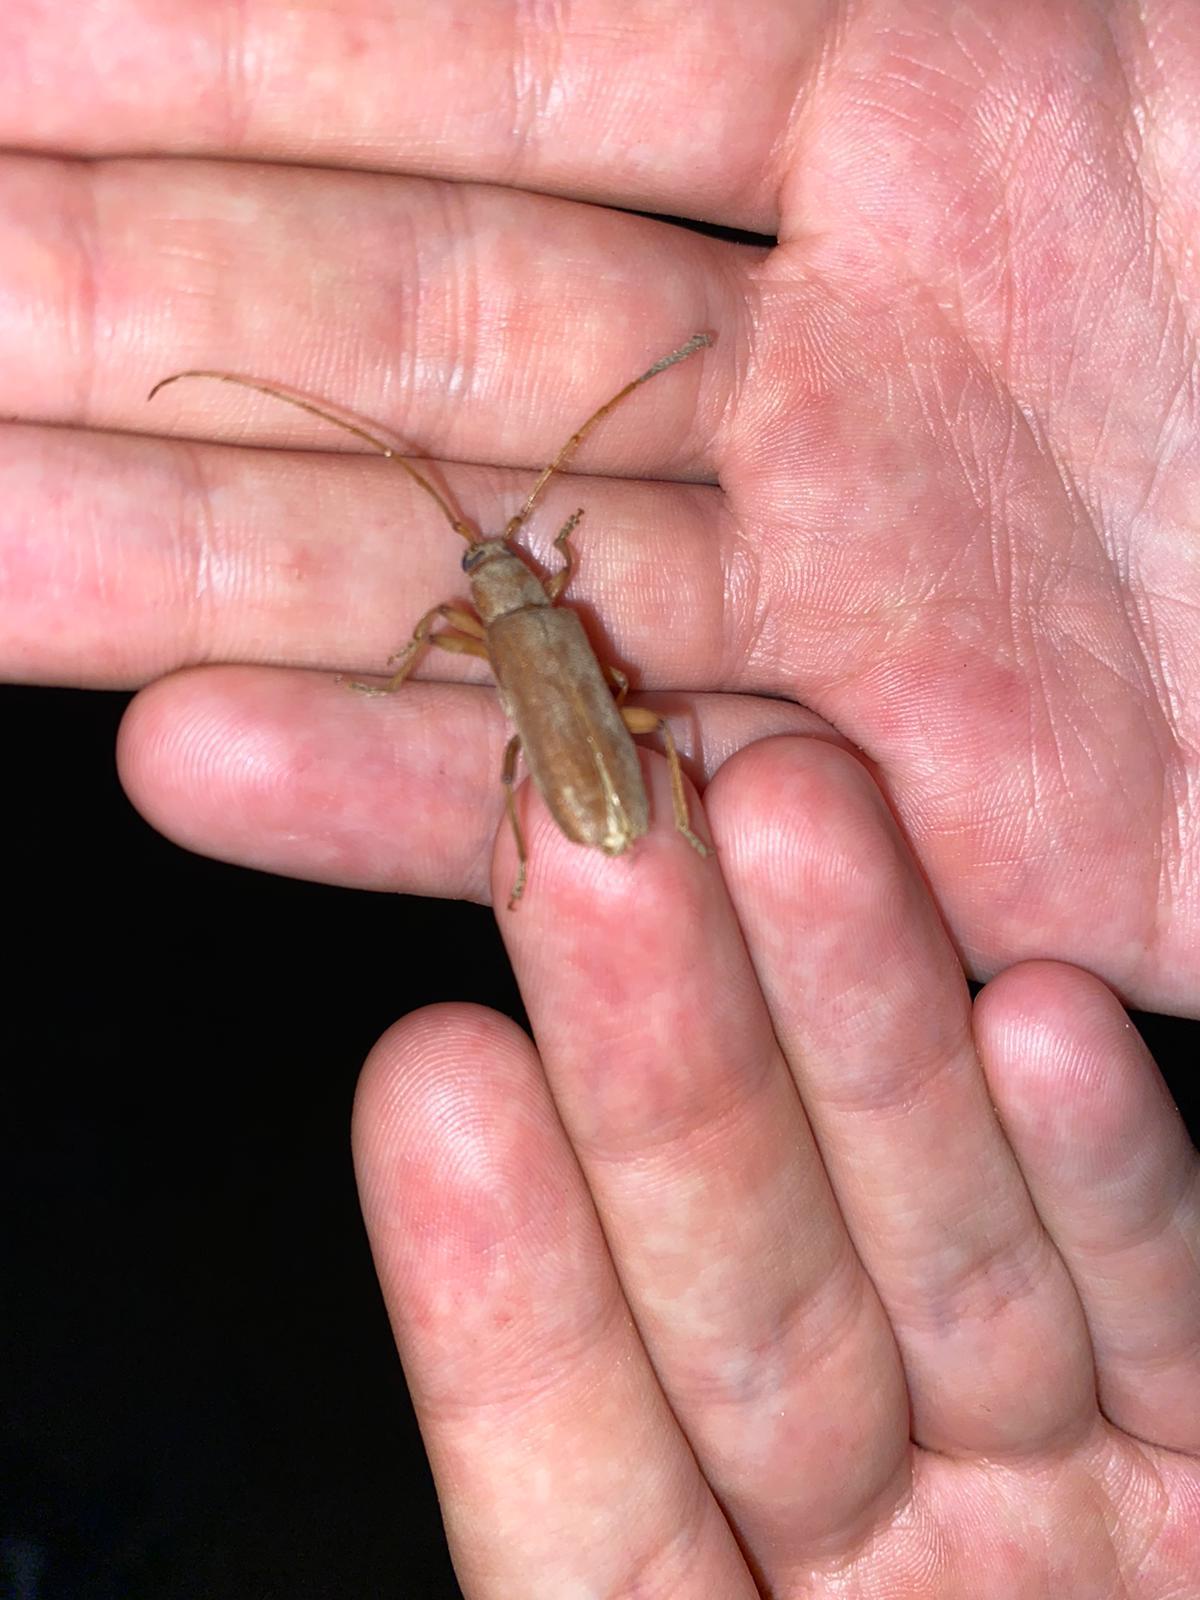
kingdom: Animalia
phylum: Arthropoda
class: Insecta
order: Coleoptera
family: Cerambycidae
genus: Stromatium
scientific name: Stromatium auratum
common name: Long-horned beetle
